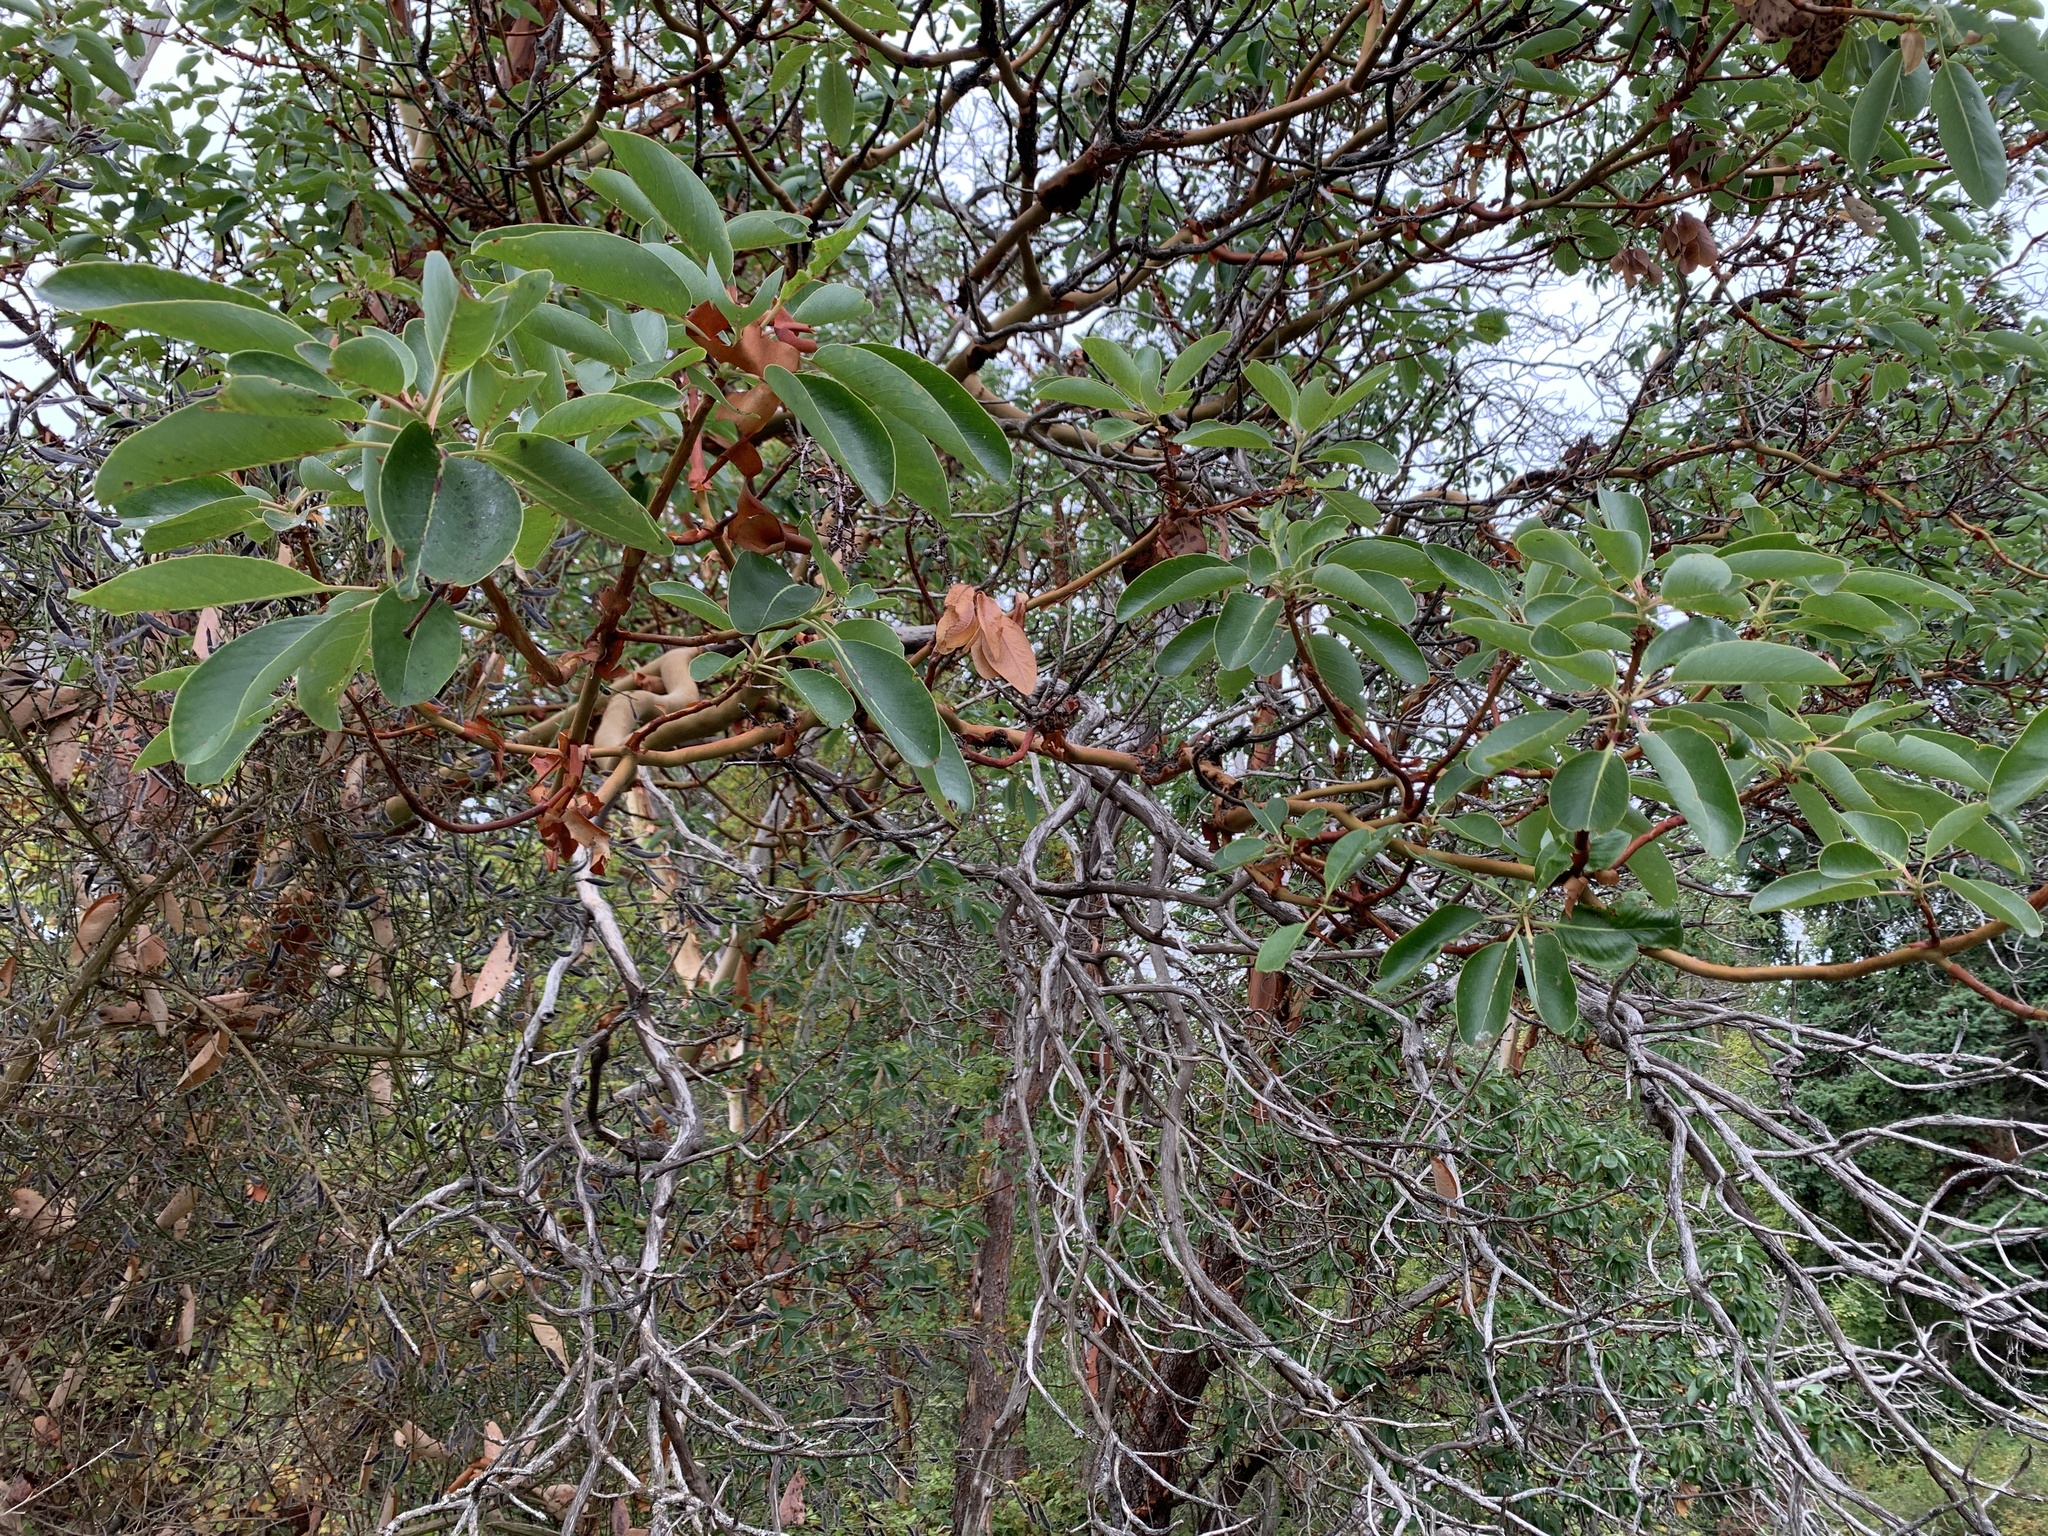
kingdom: Plantae
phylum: Tracheophyta
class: Magnoliopsida
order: Ericales
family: Ericaceae
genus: Arbutus
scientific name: Arbutus menziesii
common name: Pacific madrone
